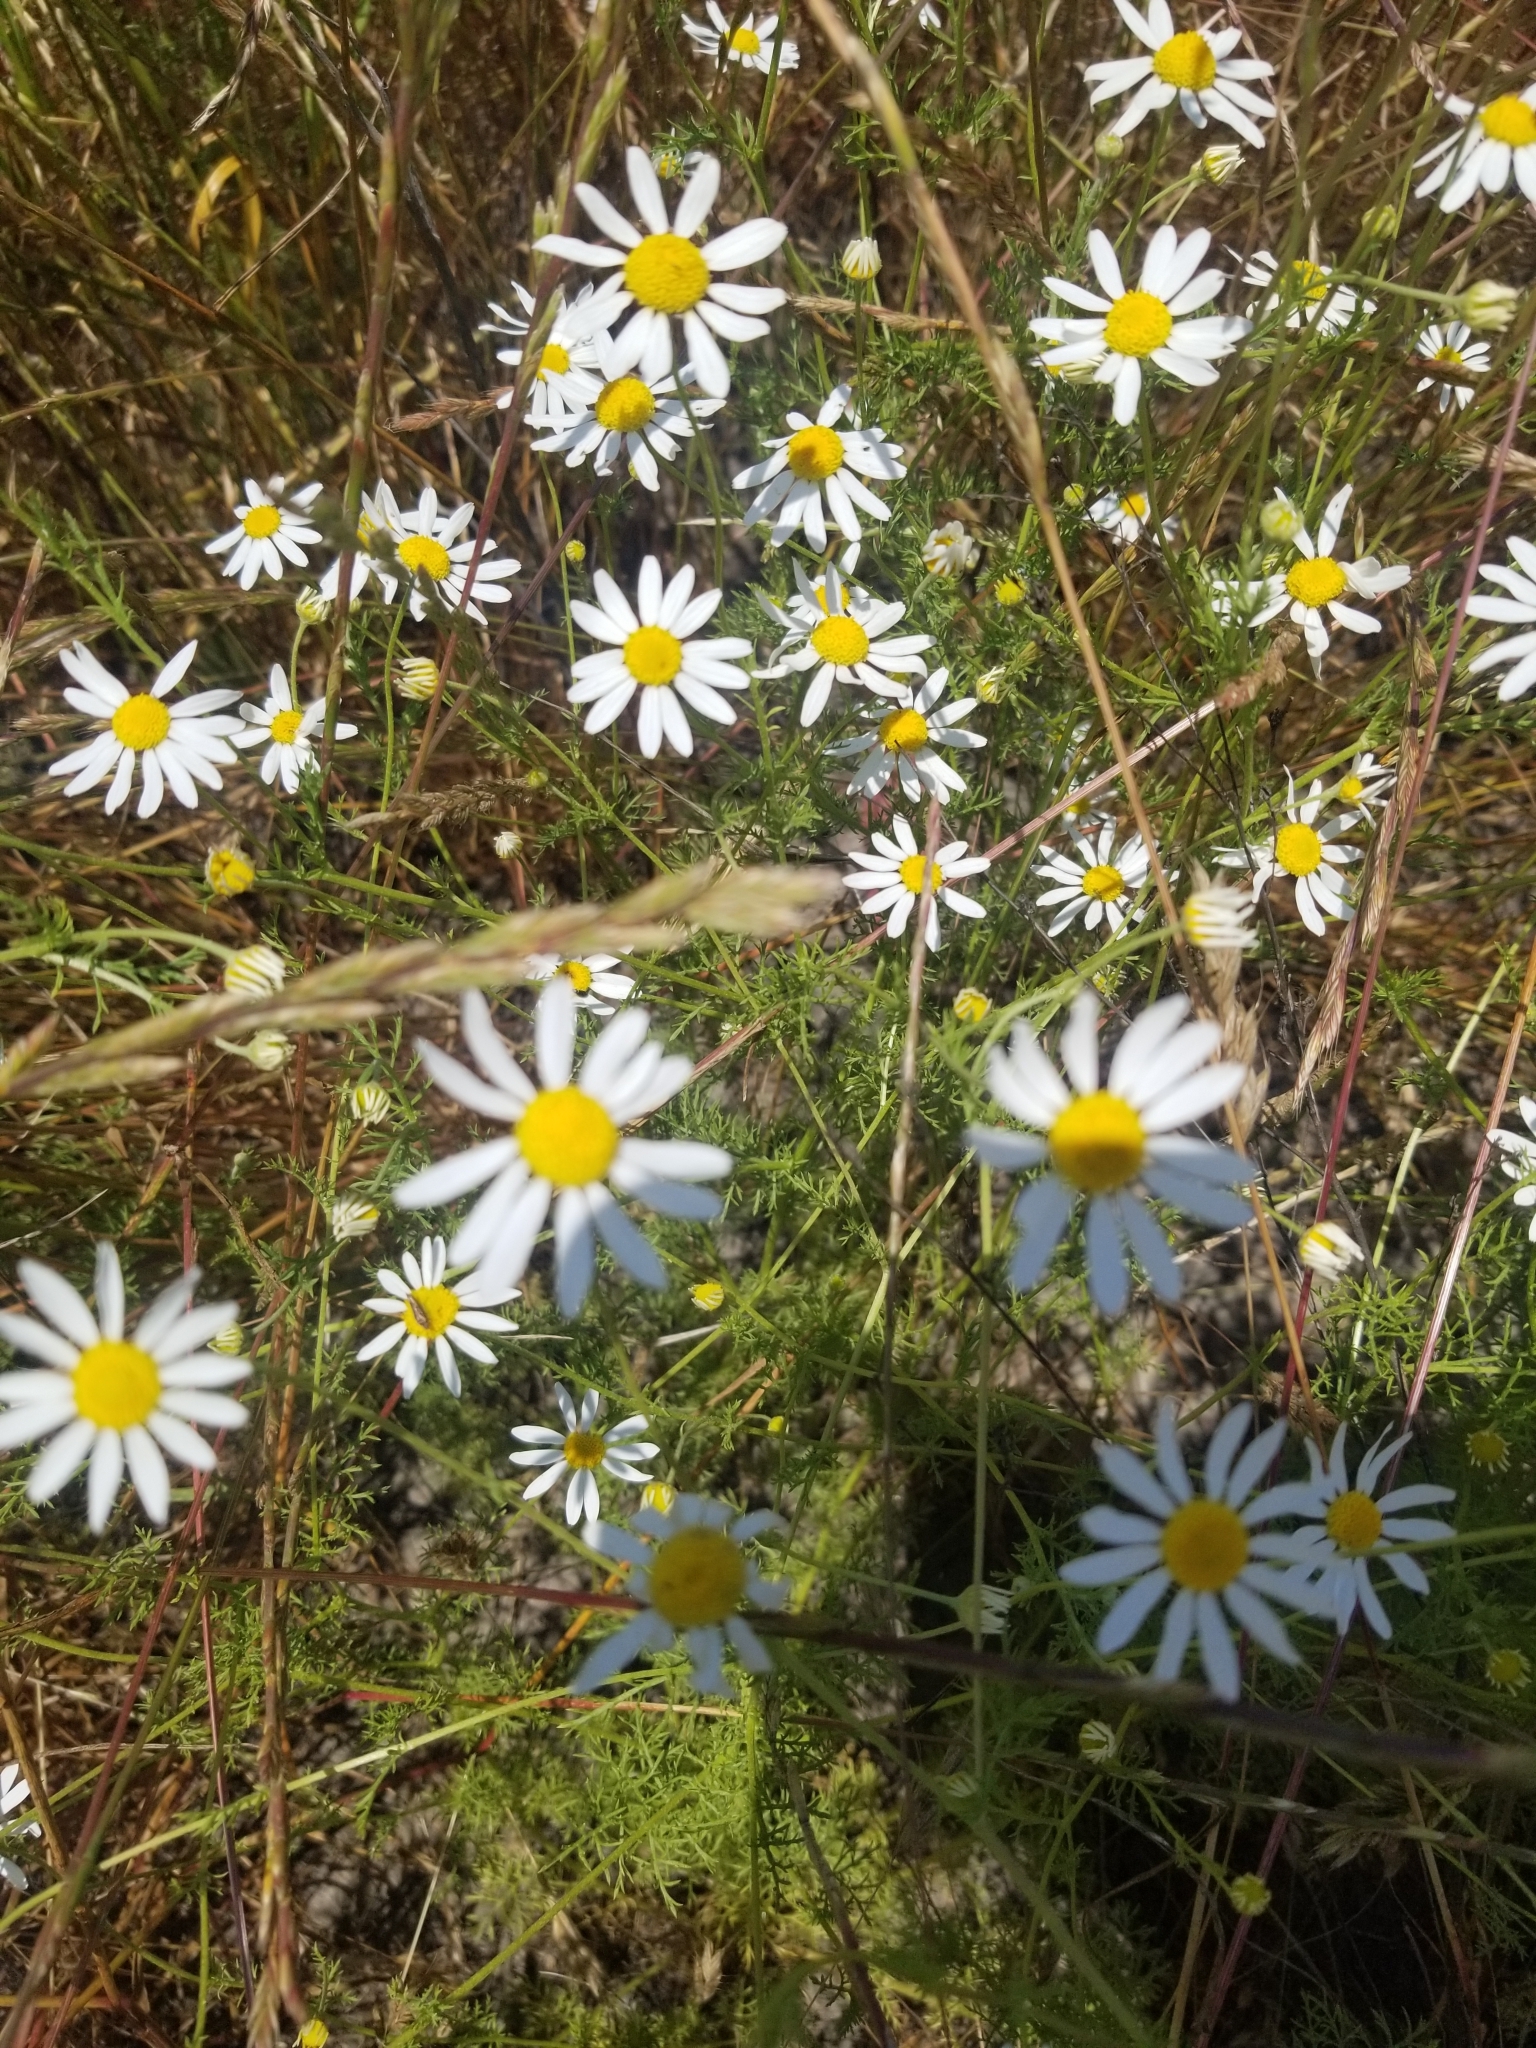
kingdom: Plantae
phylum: Tracheophyta
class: Magnoliopsida
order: Asterales
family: Asteraceae
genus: Anthemis
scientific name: Anthemis cotula
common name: Stinking chamomile
